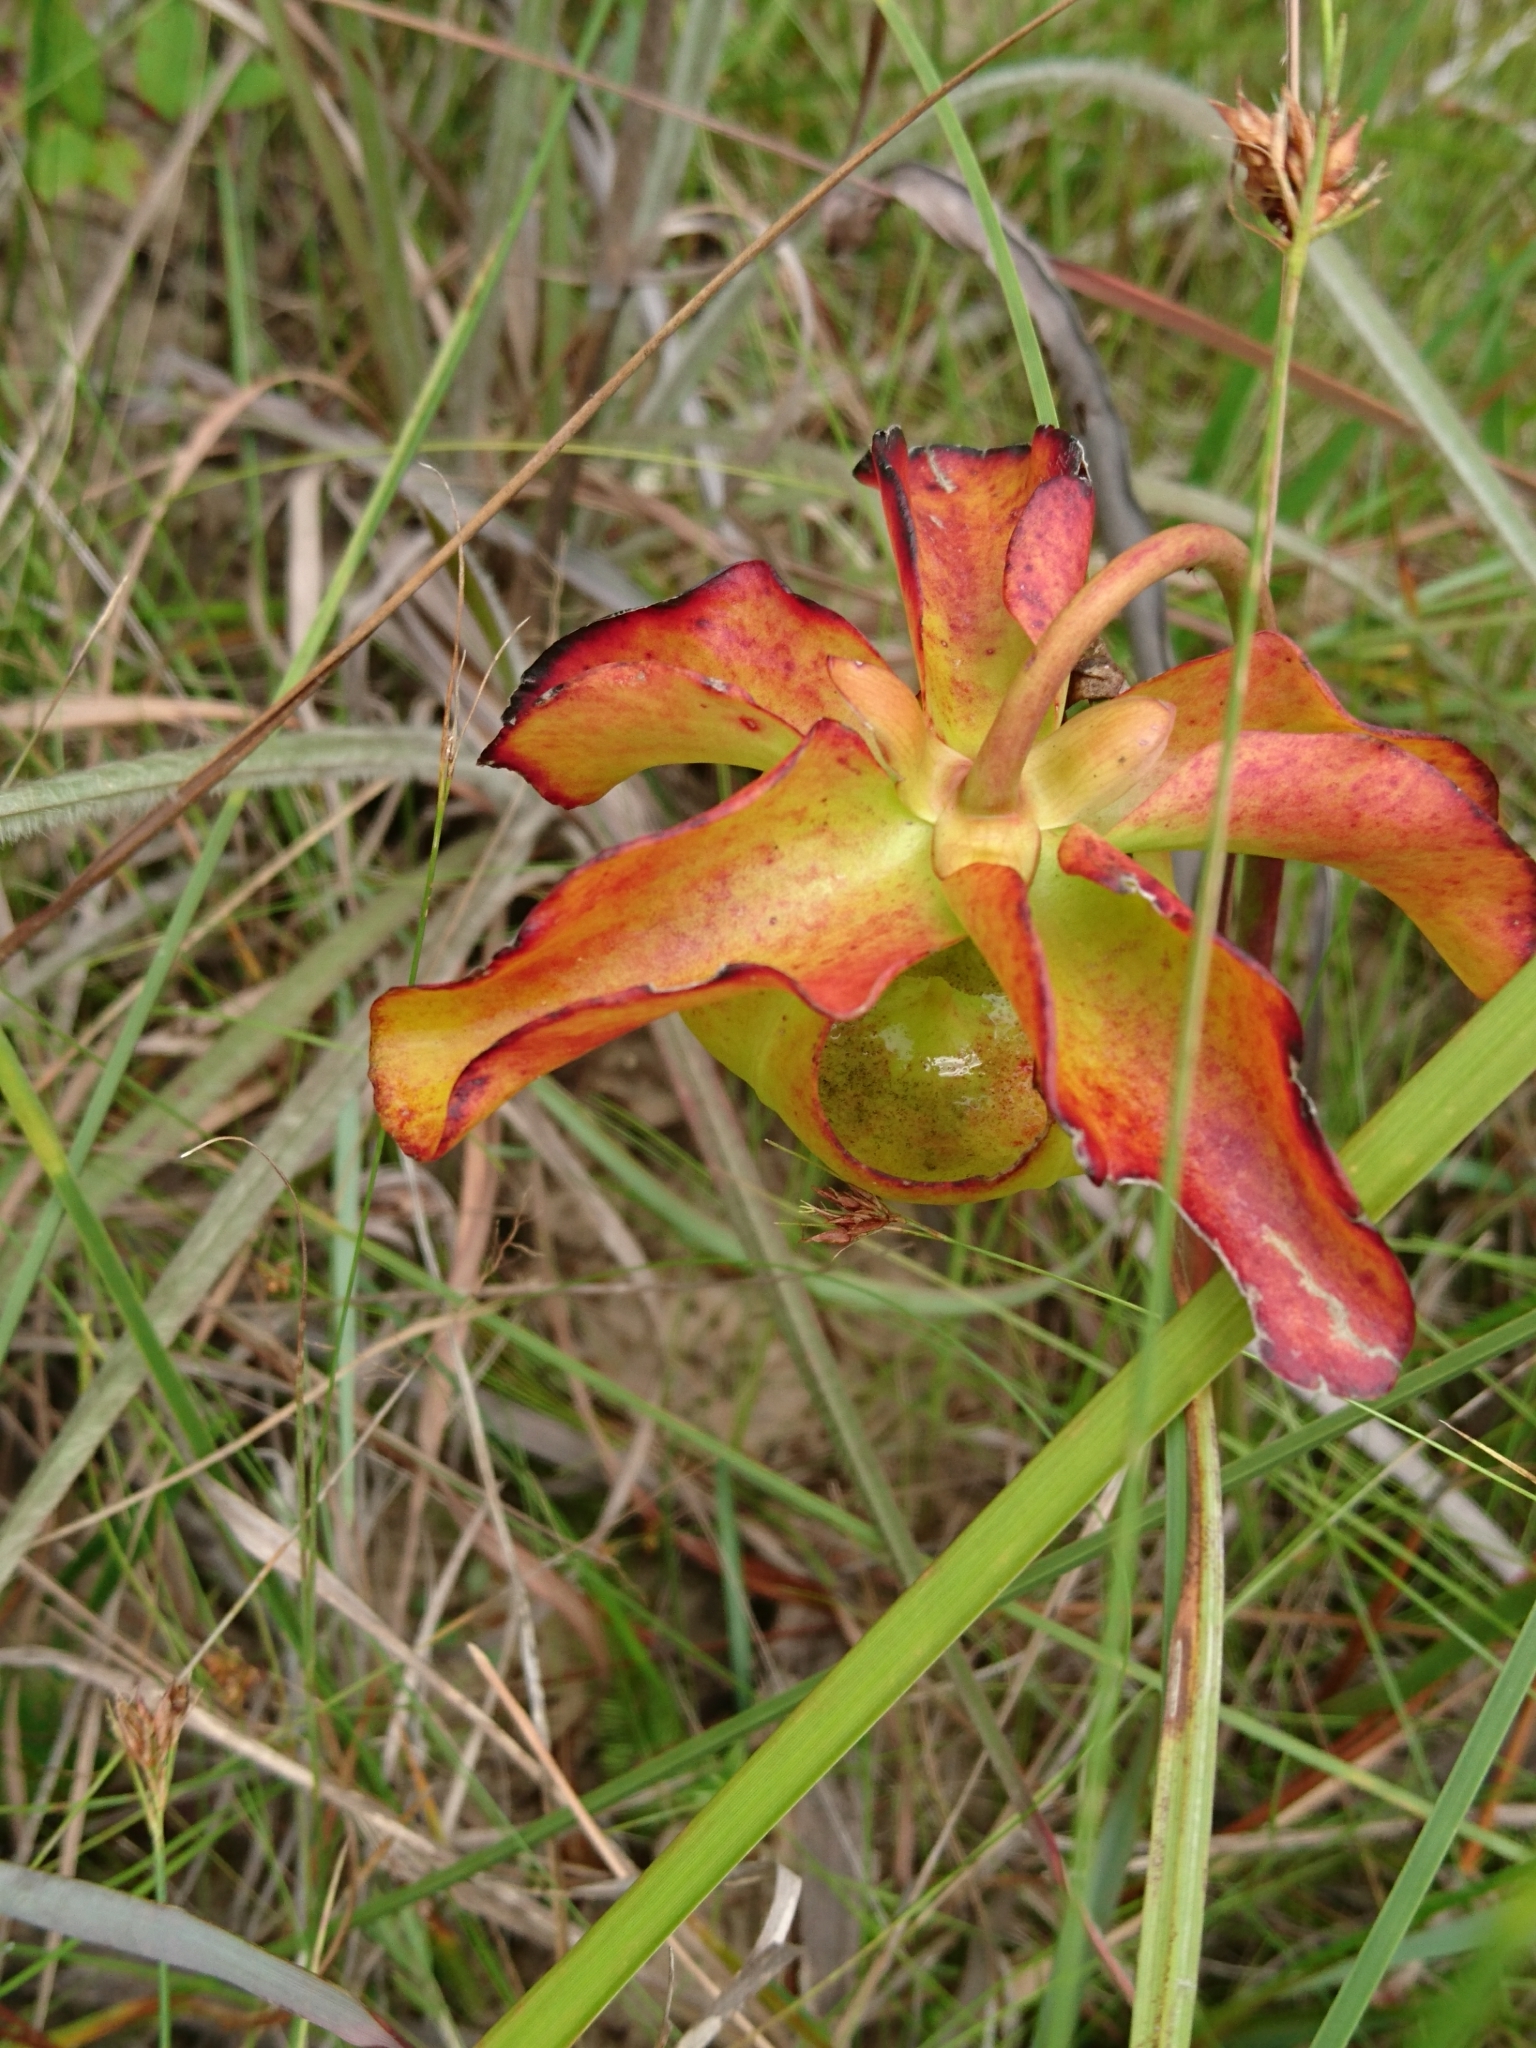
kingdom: Plantae
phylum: Tracheophyta
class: Magnoliopsida
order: Ericales
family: Sarraceniaceae
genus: Sarracenia
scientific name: Sarracenia alata
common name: Yellow trumpets
